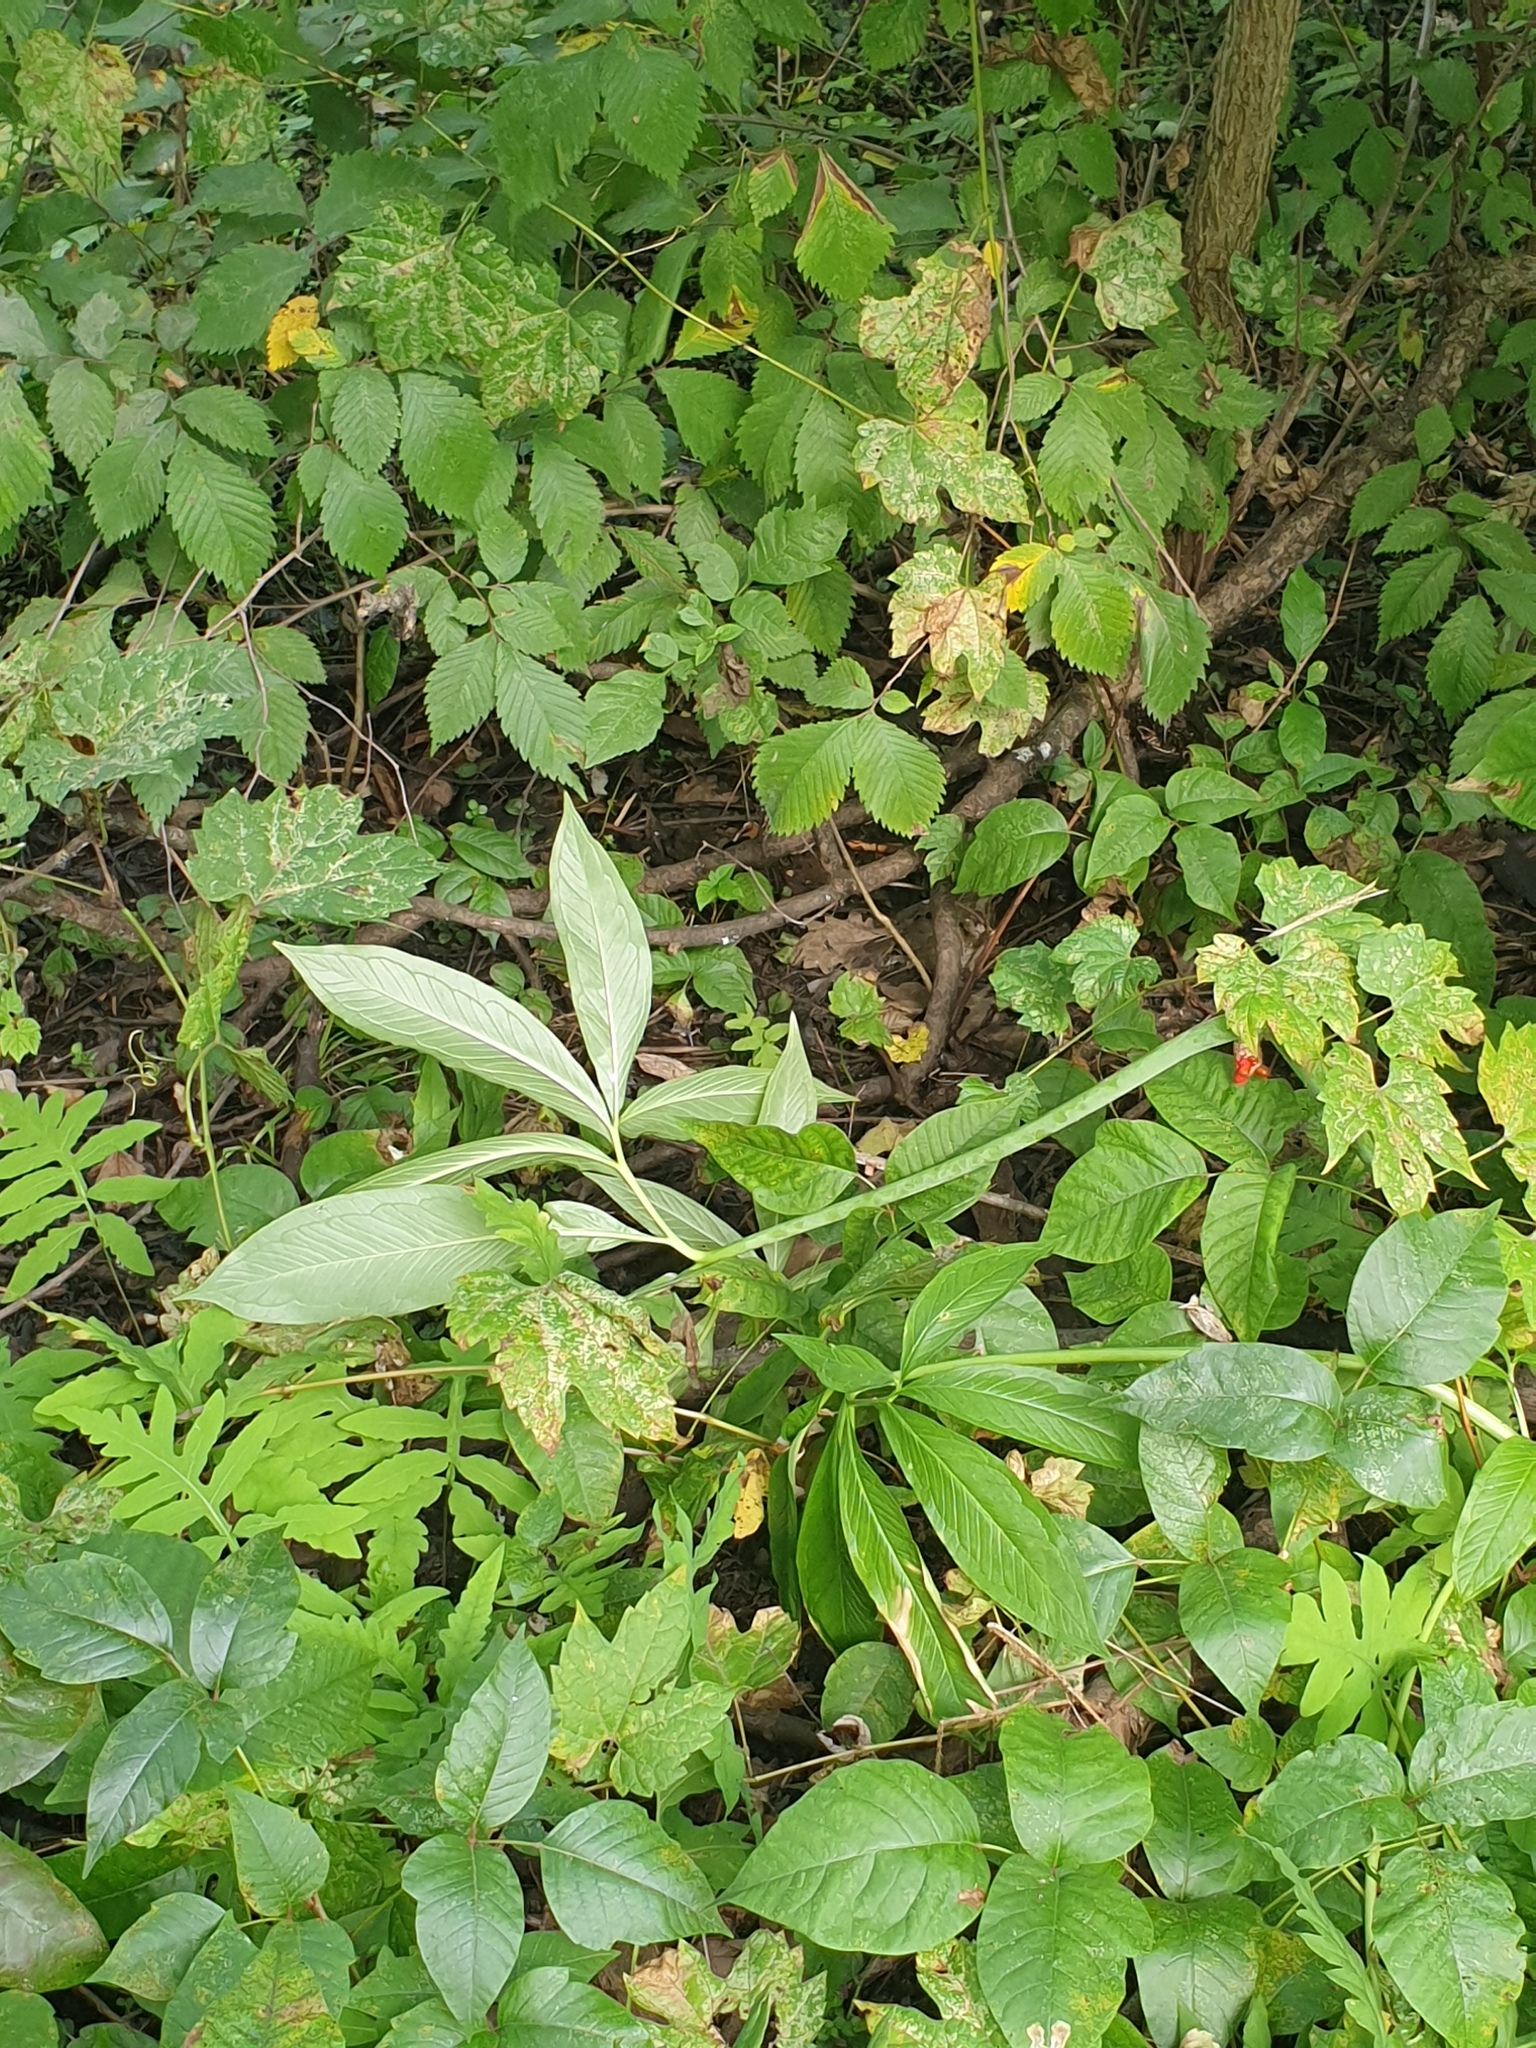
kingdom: Plantae
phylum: Tracheophyta
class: Liliopsida
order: Alismatales
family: Araceae
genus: Arisaema
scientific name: Arisaema dracontium
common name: Dragon-arum
